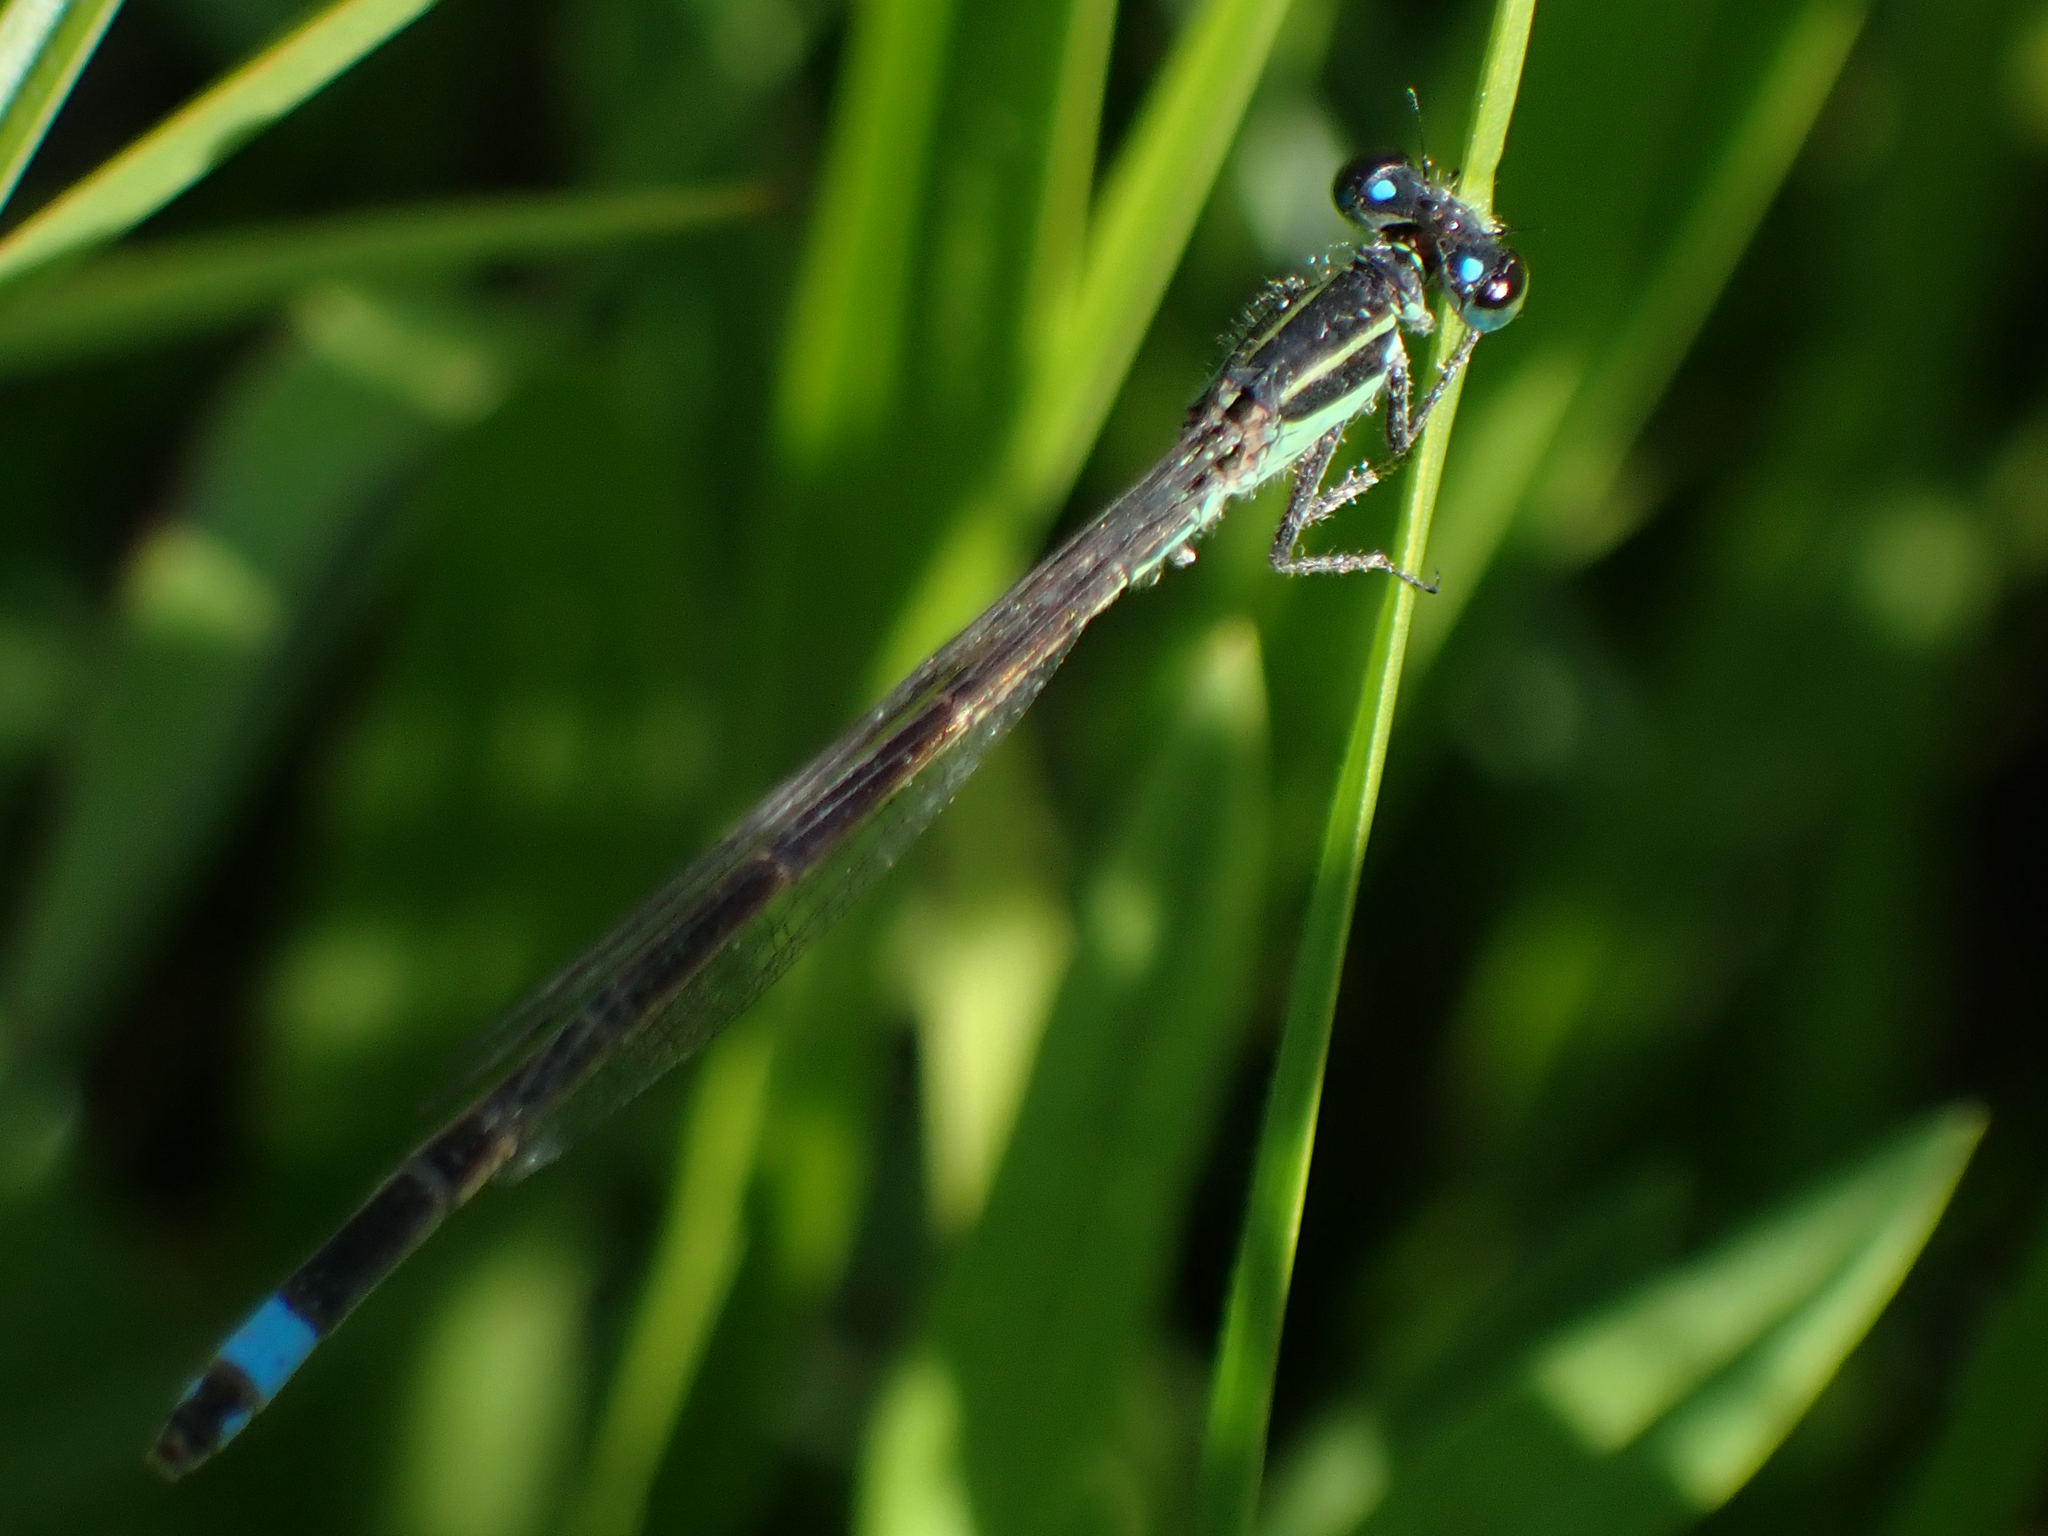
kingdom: Animalia
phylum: Arthropoda
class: Insecta
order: Odonata
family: Coenagrionidae
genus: Ischnura
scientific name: Ischnura ramburii
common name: Rambur's forktail
